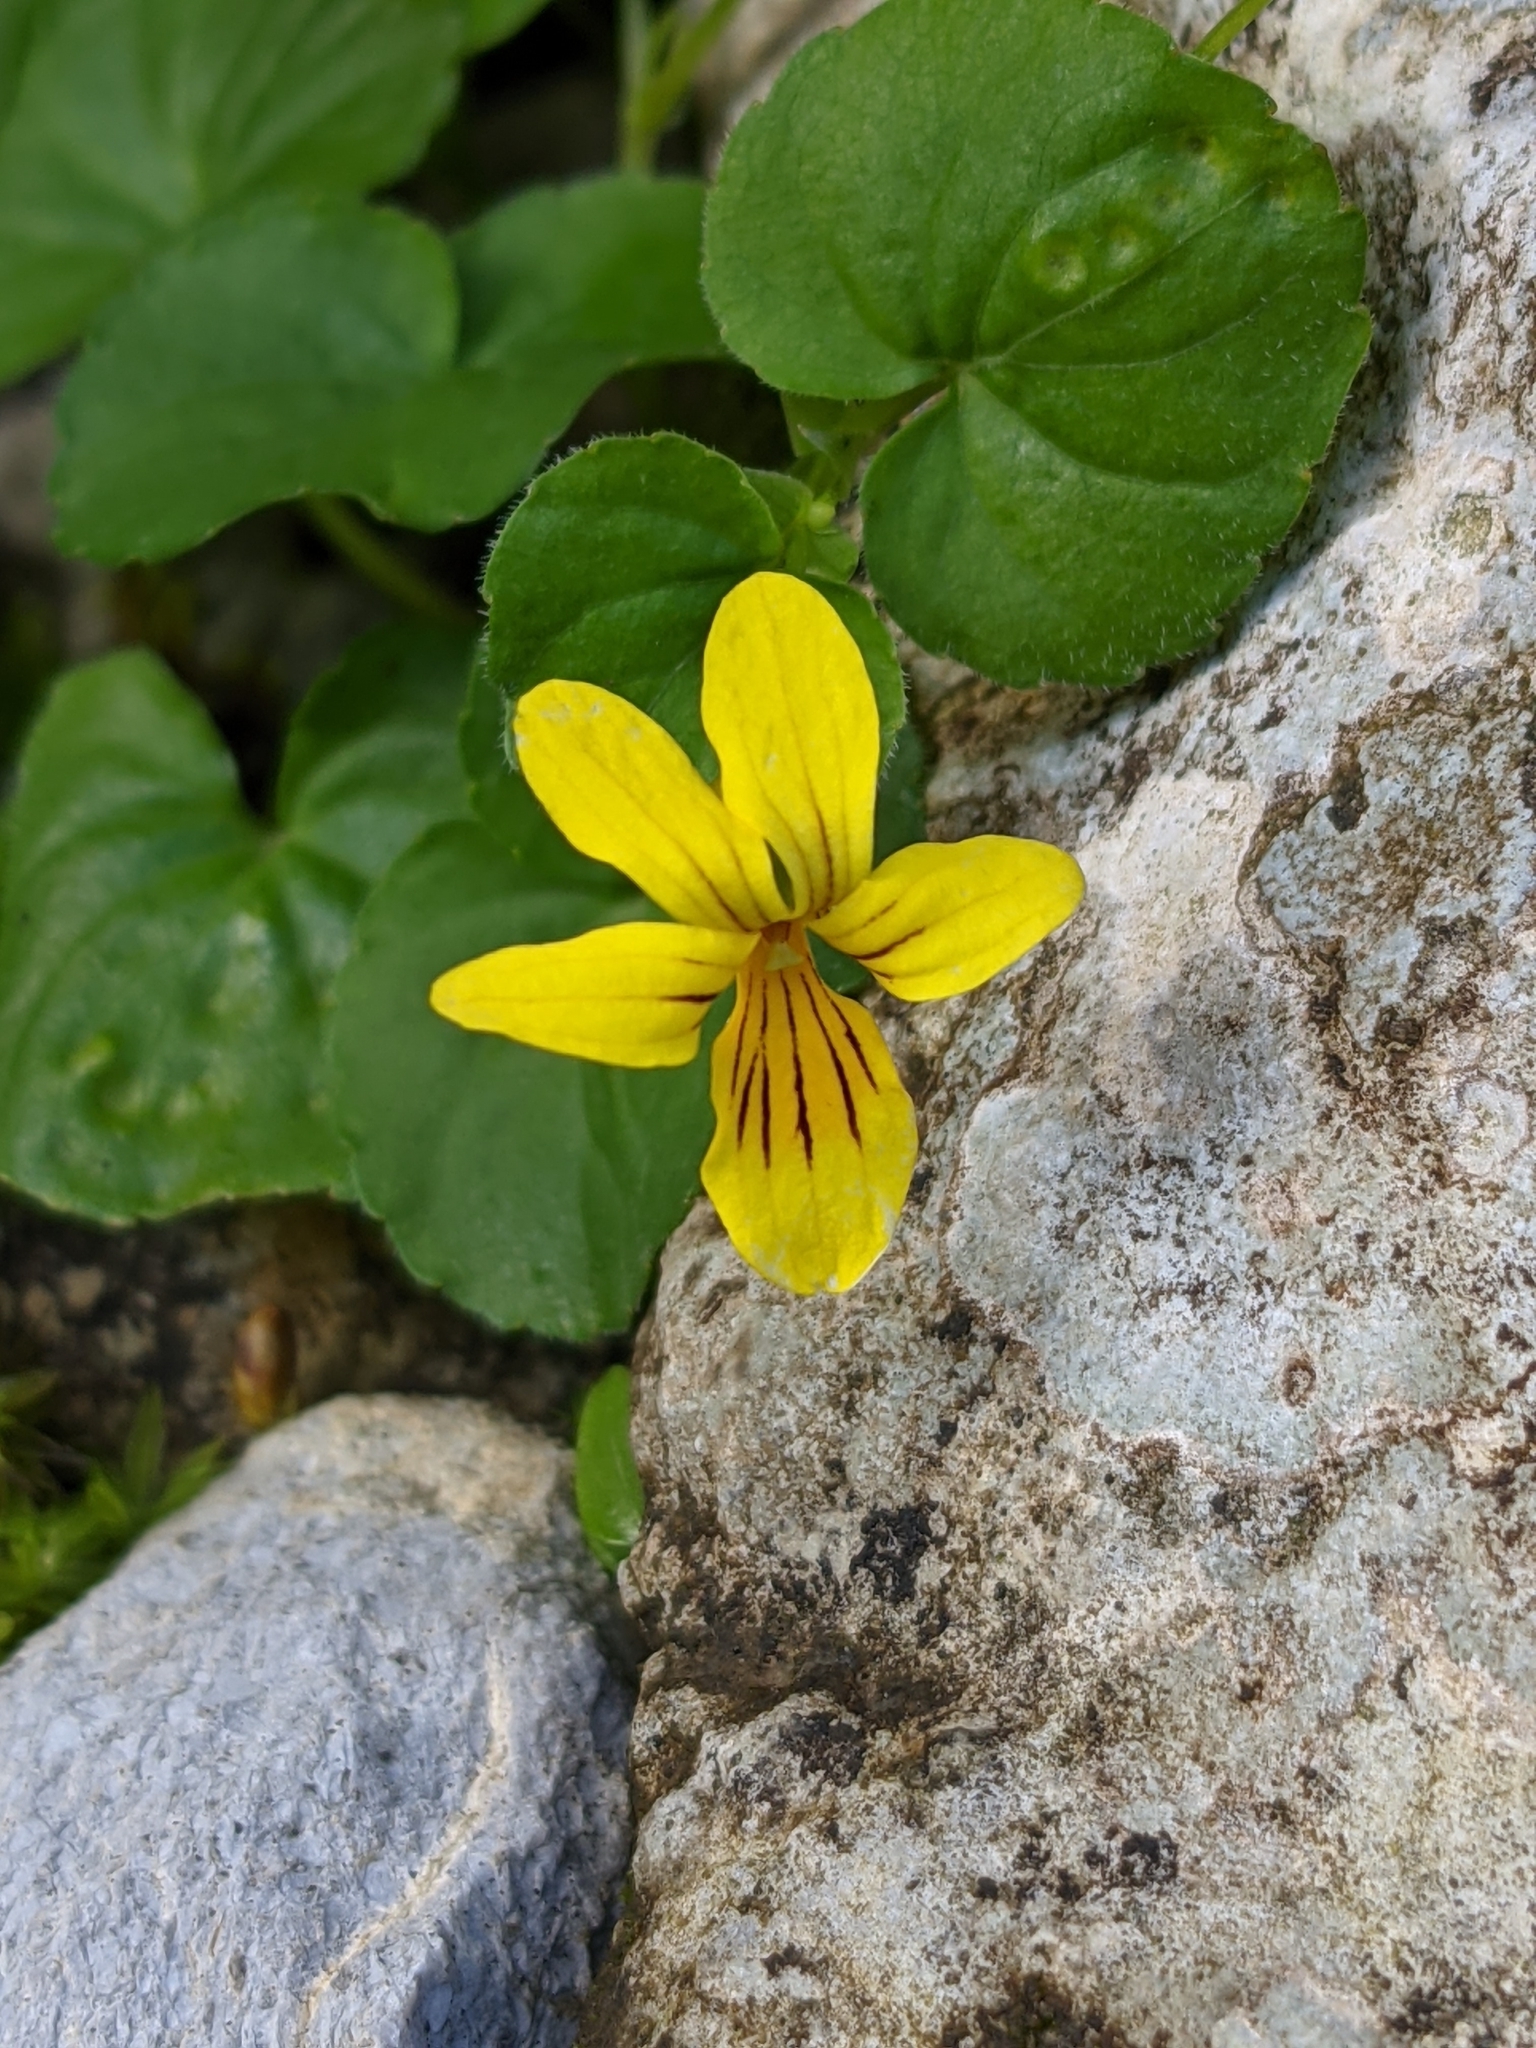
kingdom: Plantae
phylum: Tracheophyta
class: Magnoliopsida
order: Malpighiales
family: Violaceae
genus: Viola
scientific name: Viola biflora
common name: Alpine yellow violet
